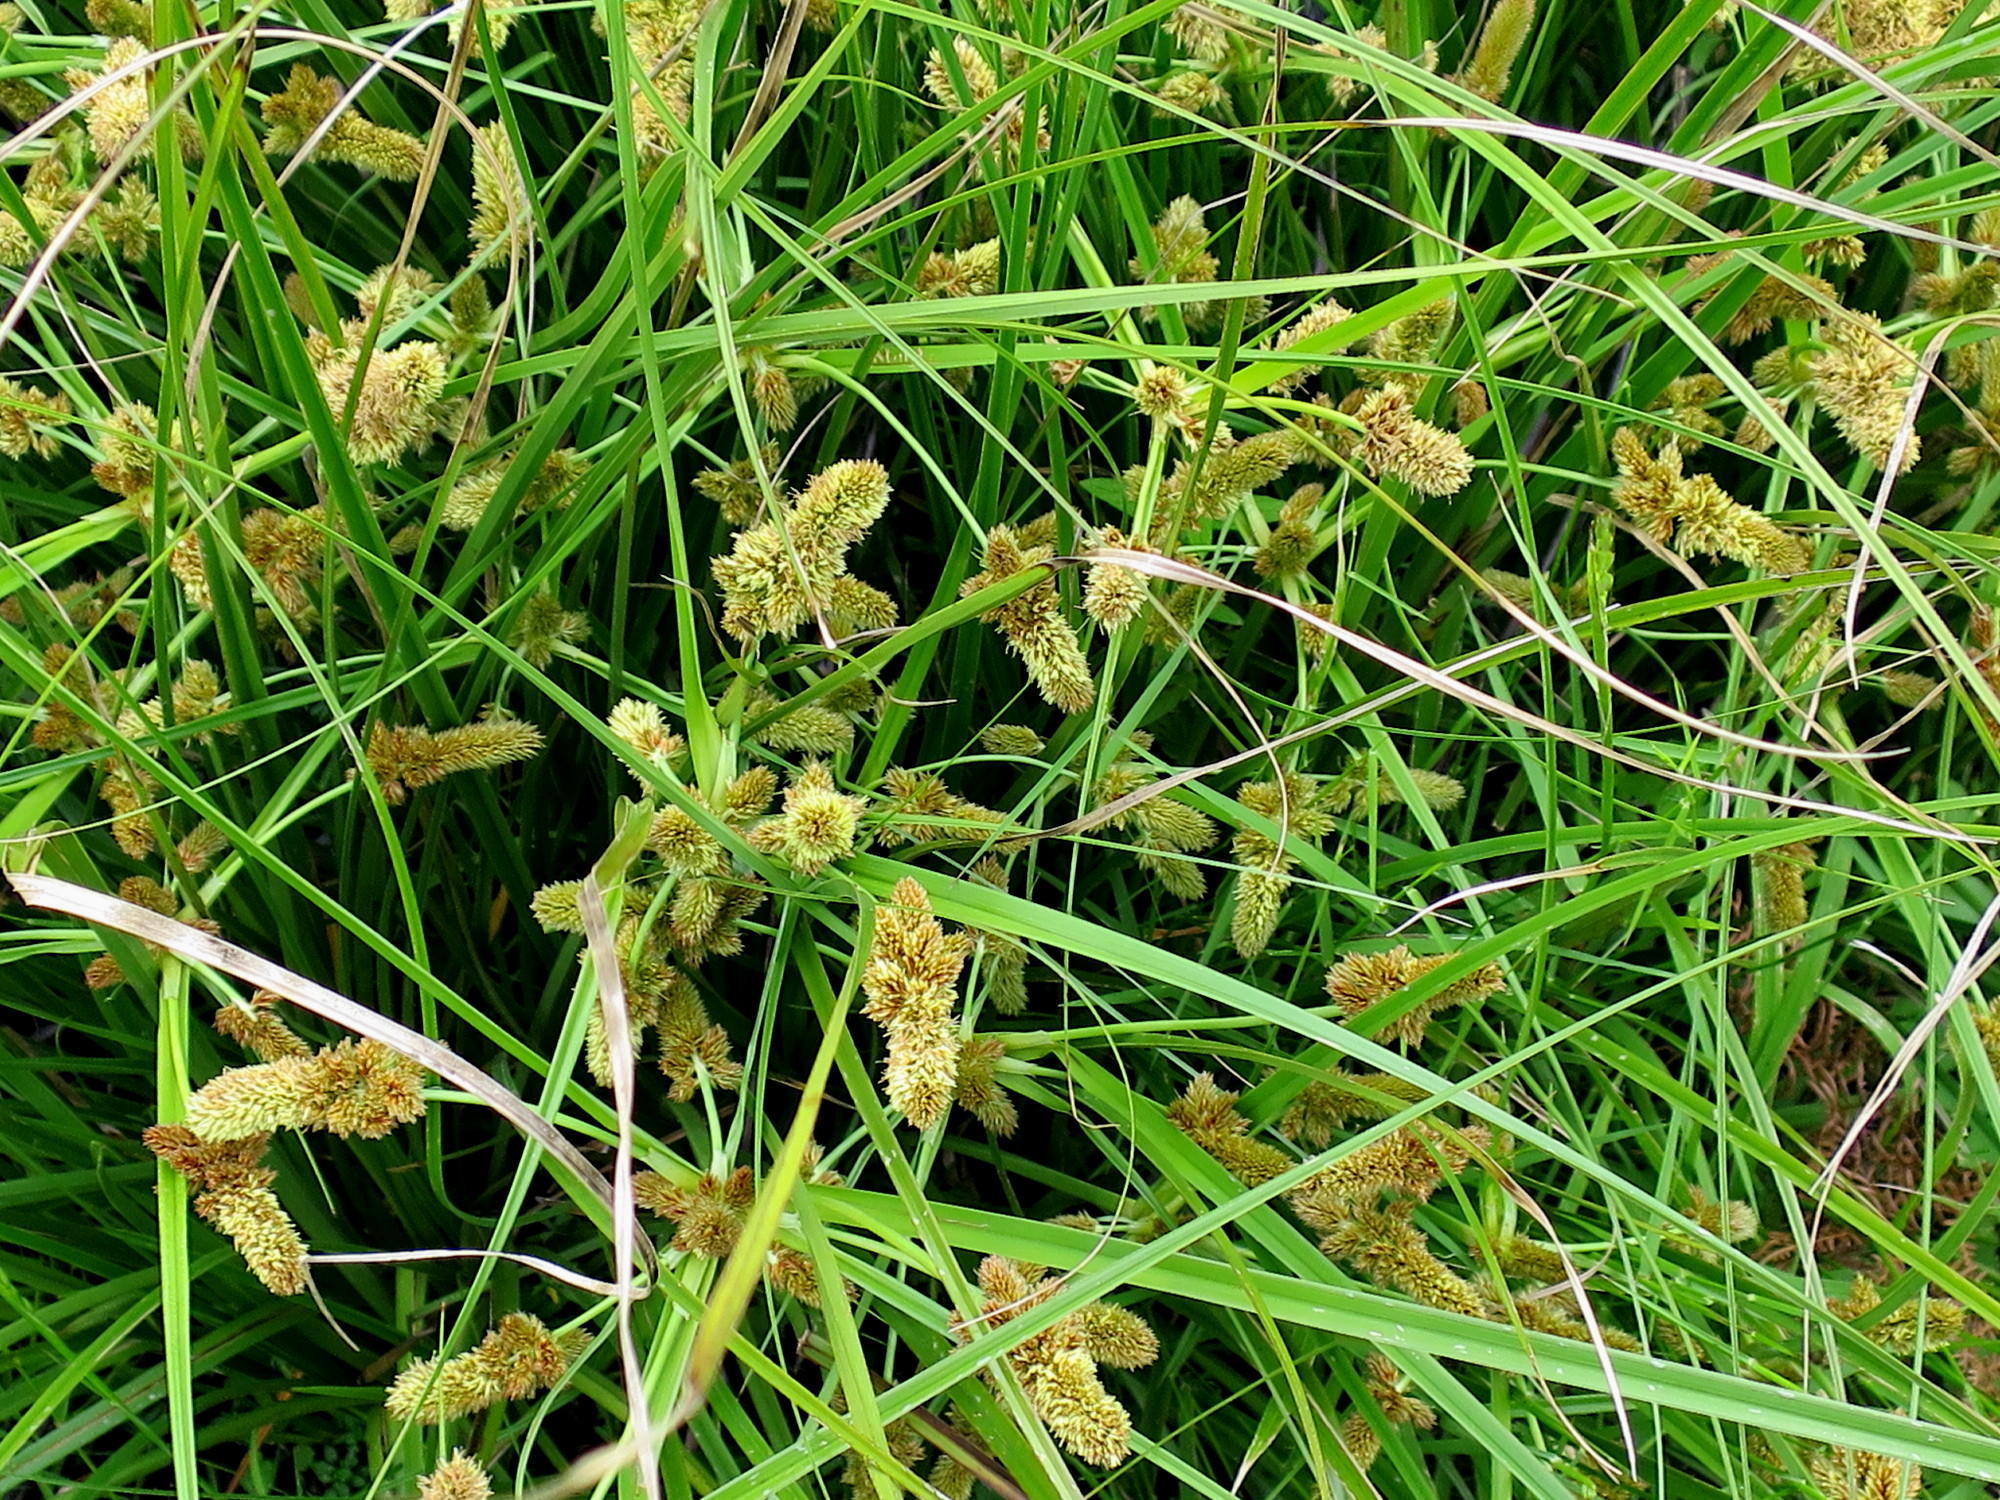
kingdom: Plantae
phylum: Tracheophyta
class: Liliopsida
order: Poales
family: Cyperaceae
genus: Cyperus
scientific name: Cyperus thunbergii
